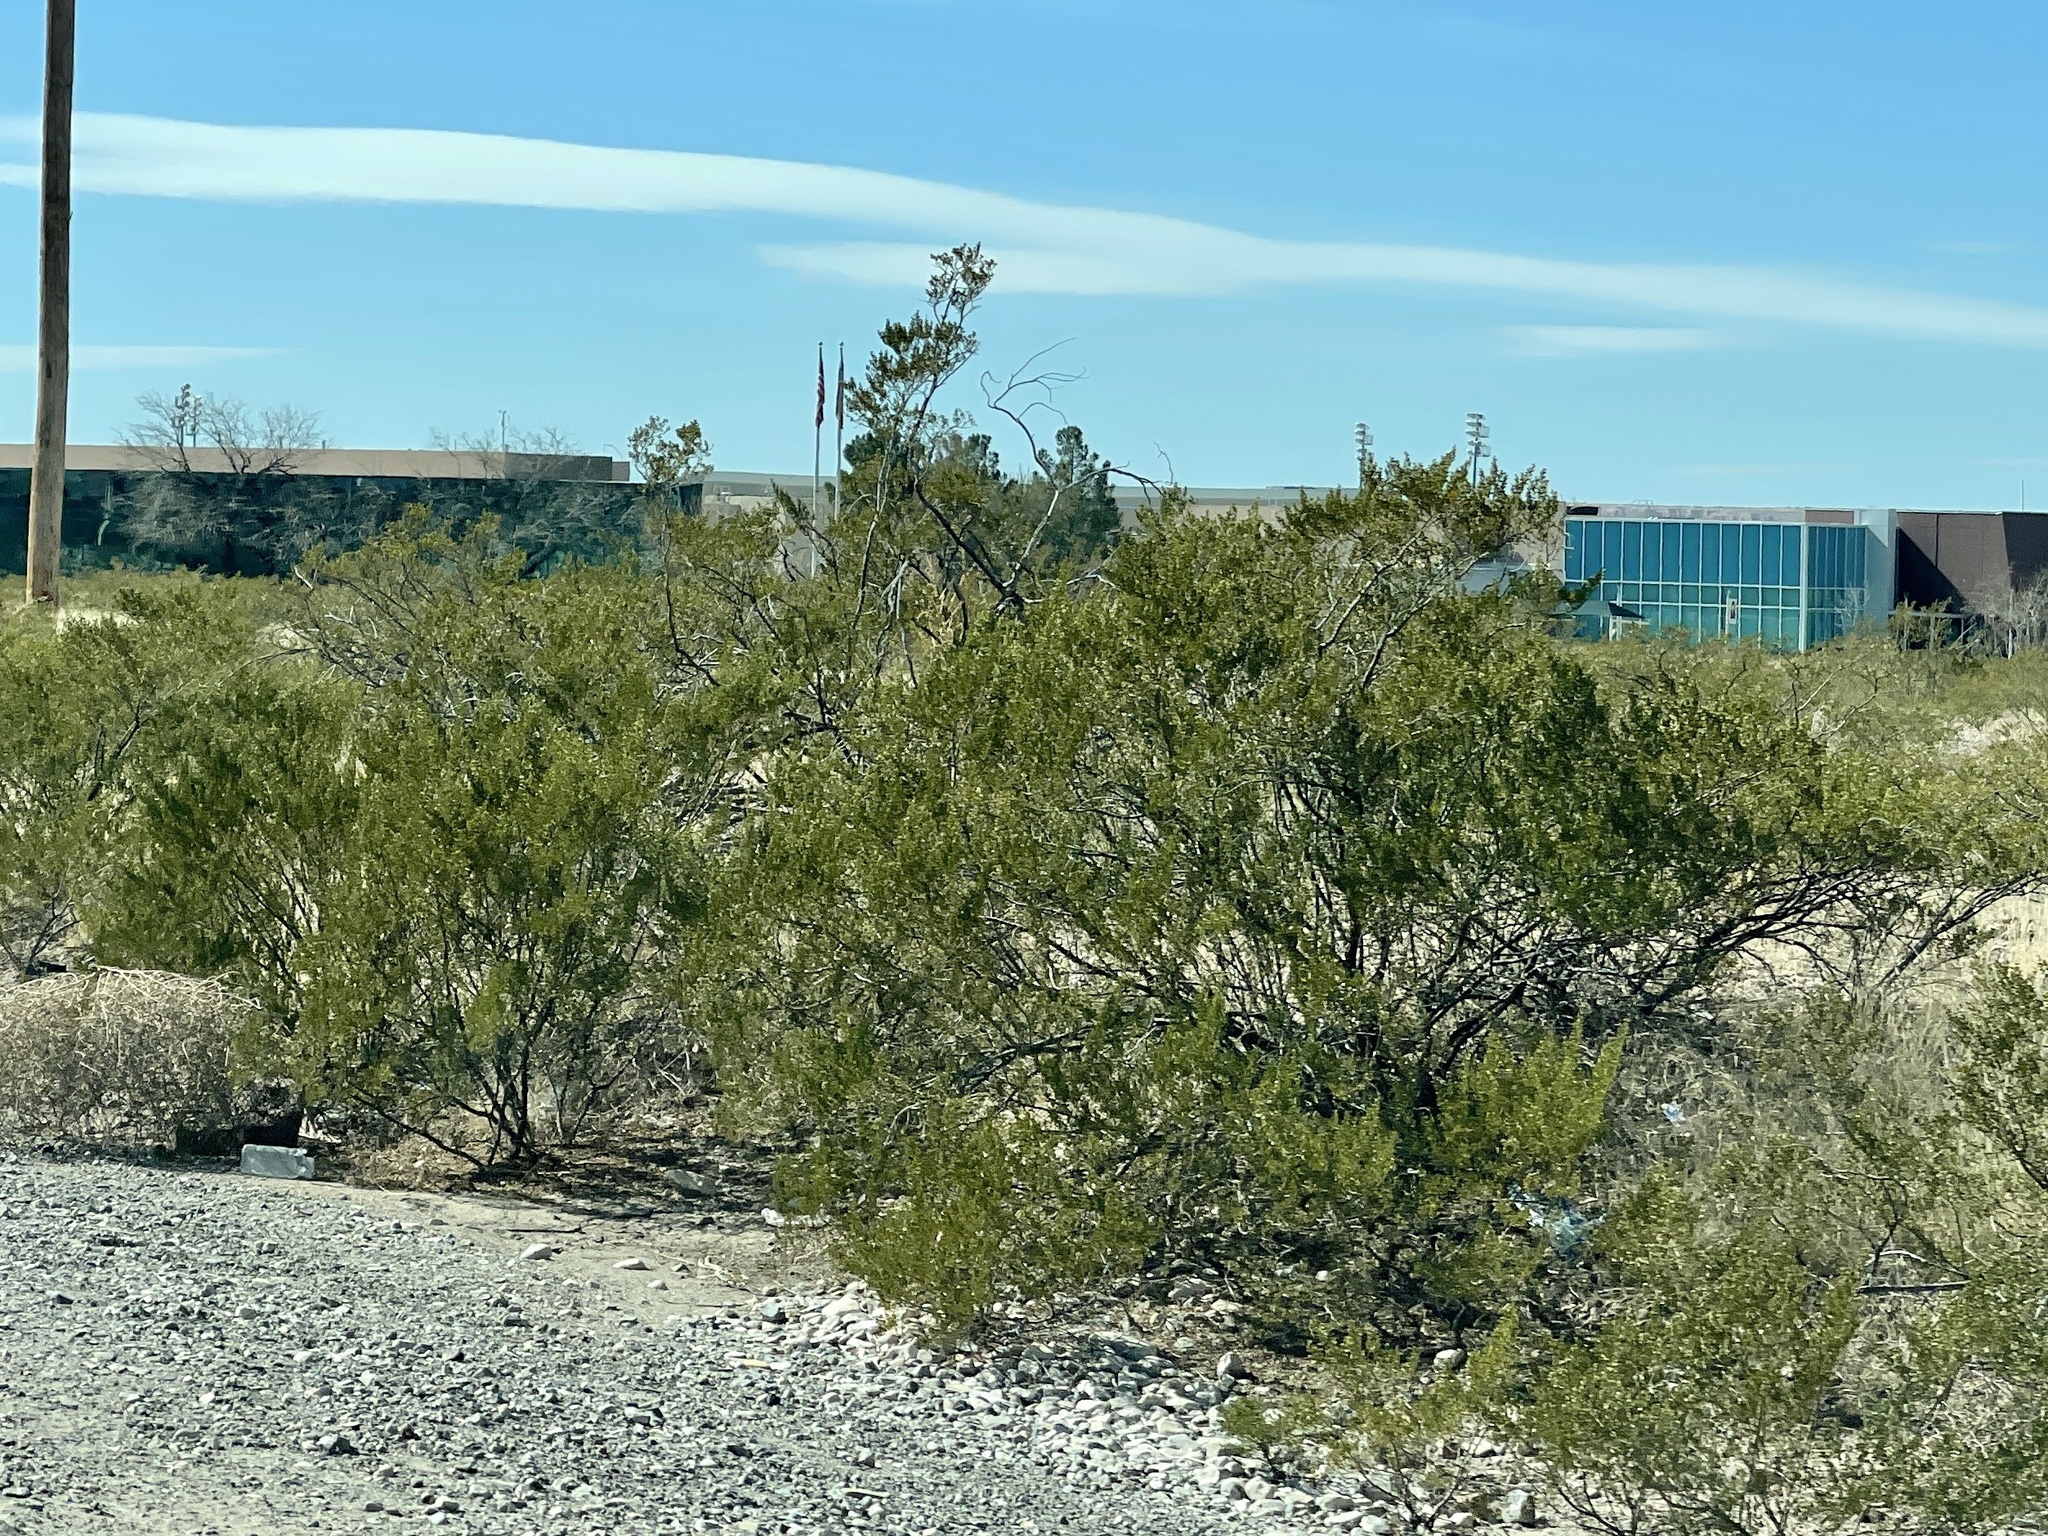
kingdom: Plantae
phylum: Tracheophyta
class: Magnoliopsida
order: Zygophyllales
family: Zygophyllaceae
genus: Larrea
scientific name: Larrea tridentata
